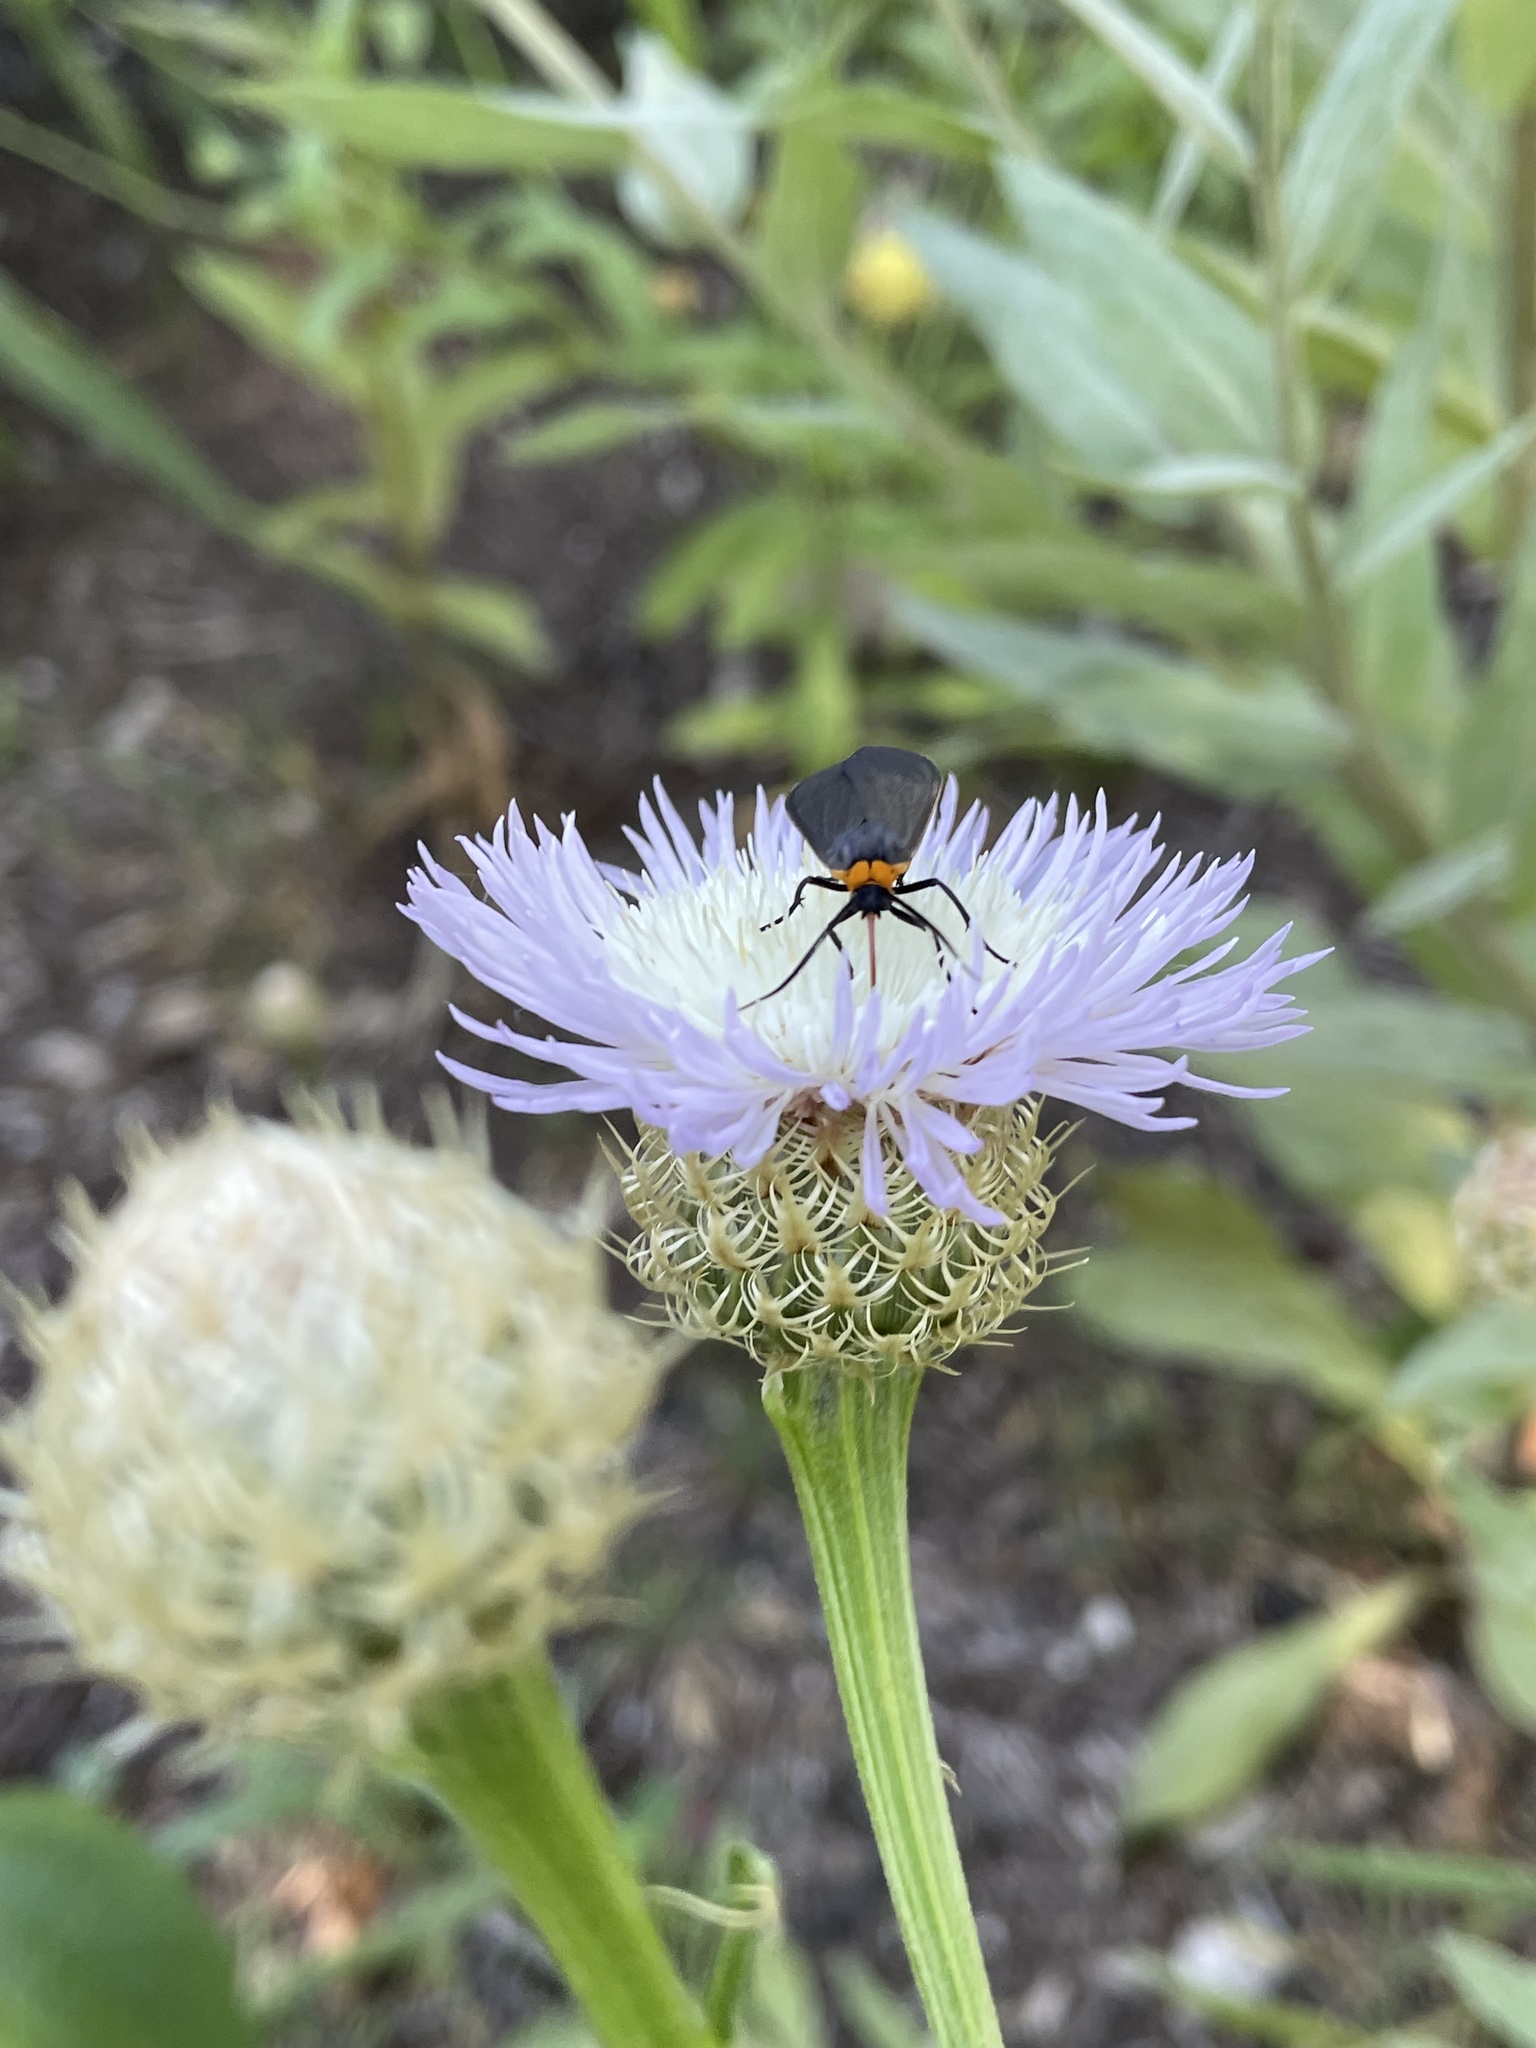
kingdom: Animalia
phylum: Arthropoda
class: Insecta
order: Lepidoptera
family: Erebidae
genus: Cisseps
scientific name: Cisseps fulvicollis
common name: Yellow-collared scape moth
